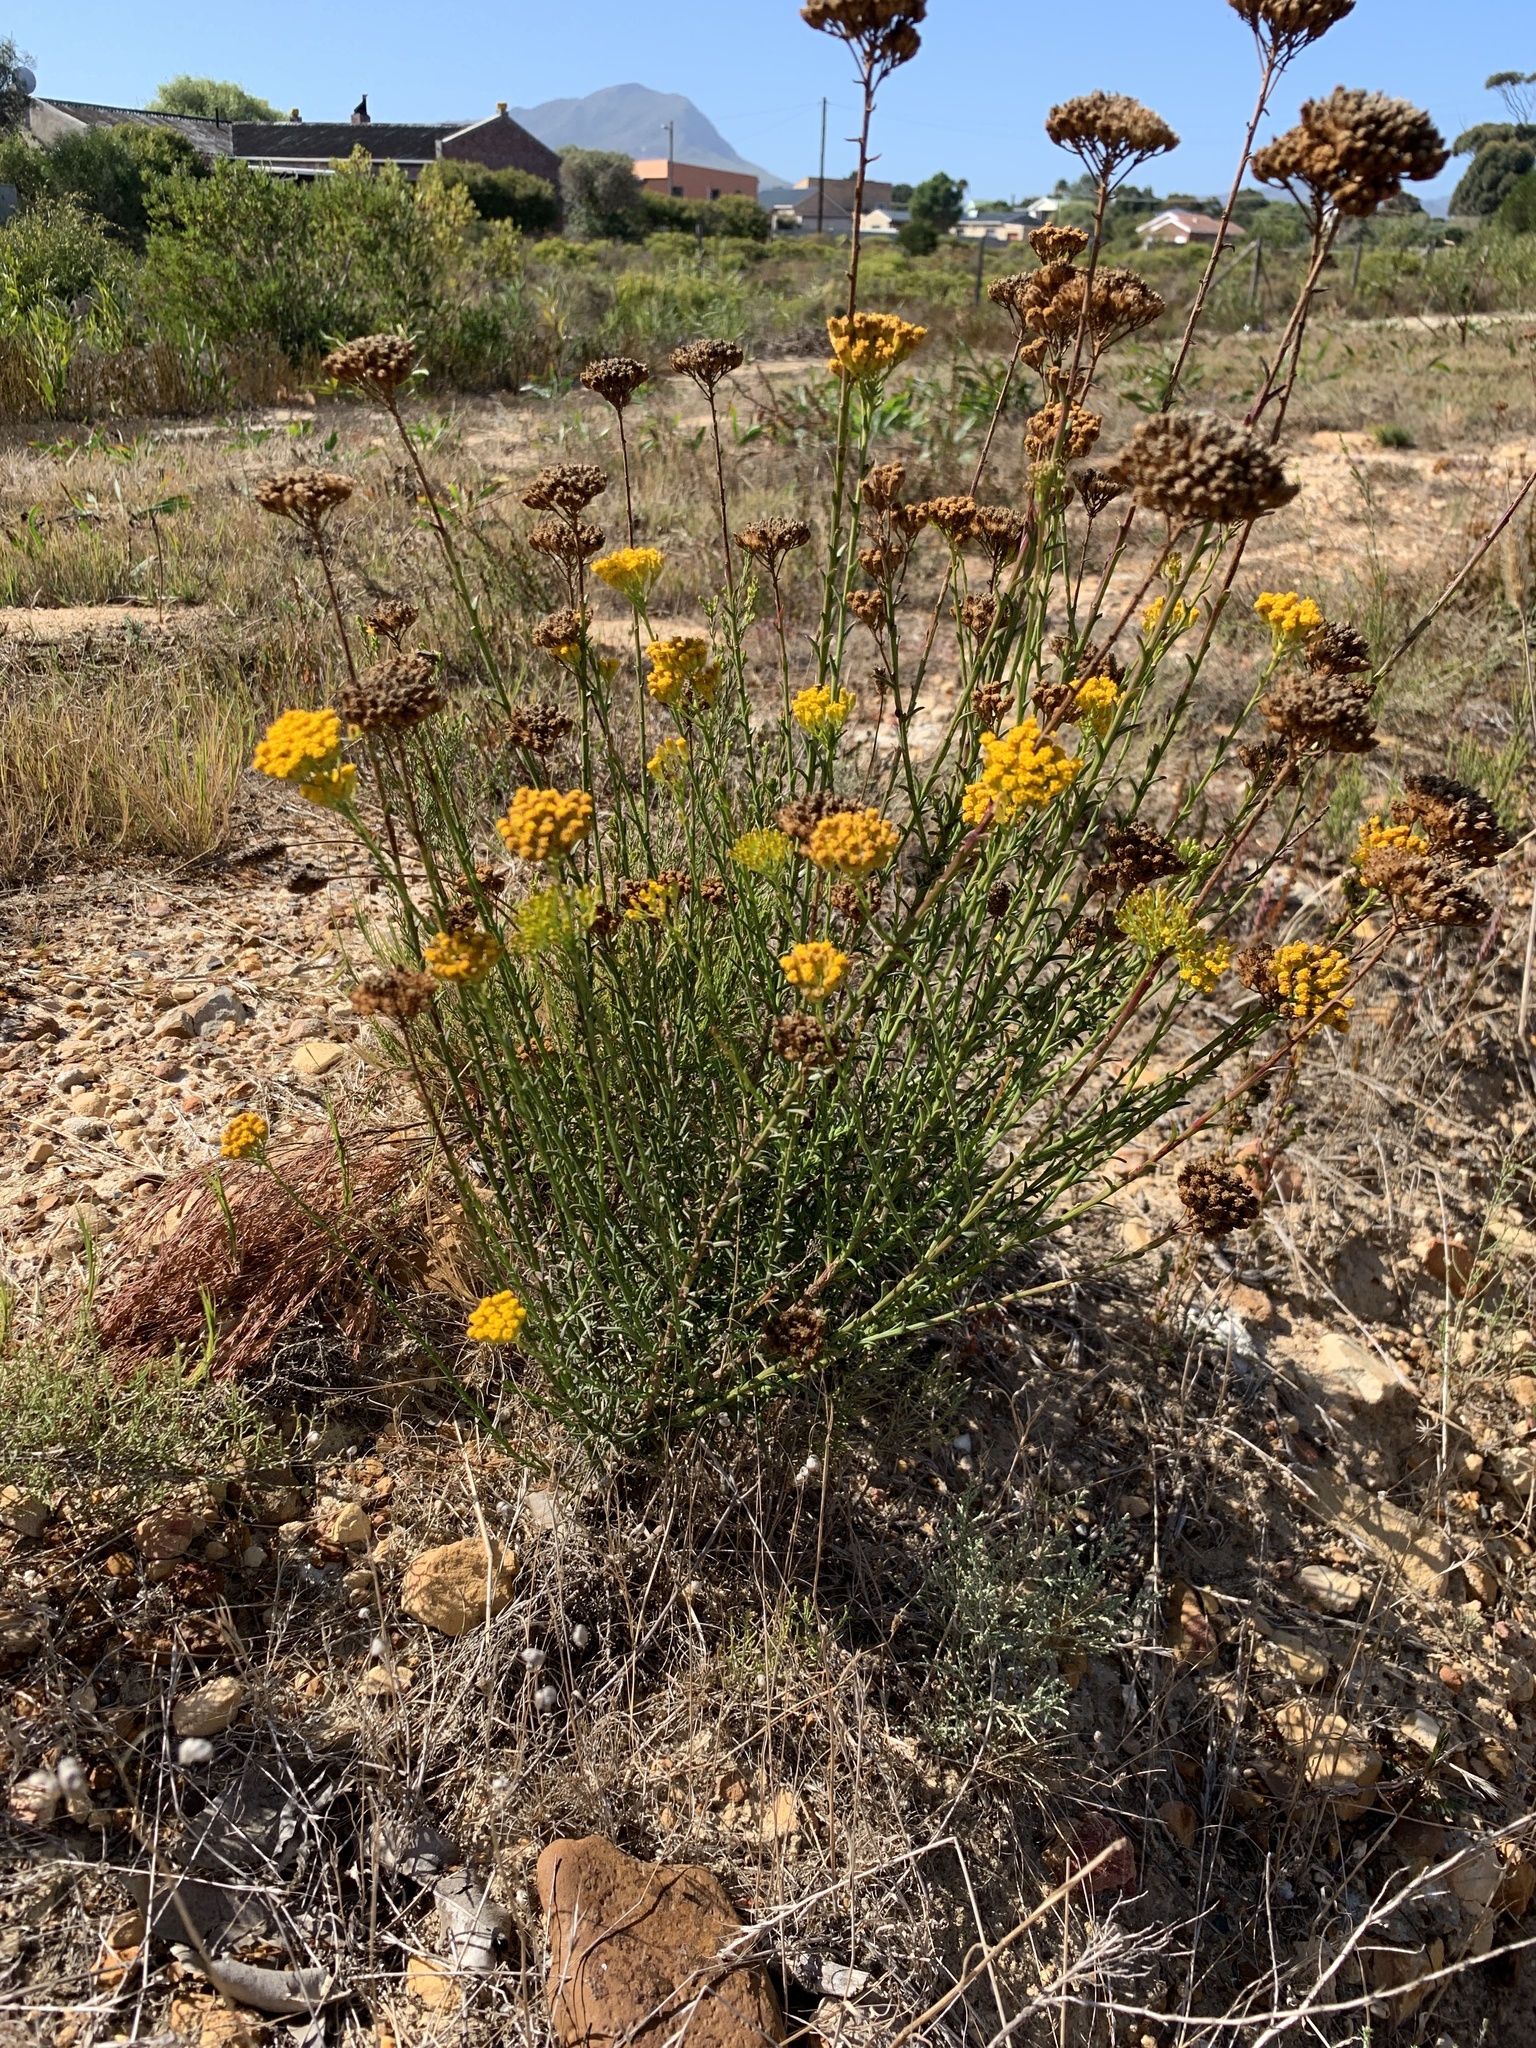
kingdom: Plantae
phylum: Tracheophyta
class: Magnoliopsida
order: Asterales
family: Asteraceae
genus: Athanasia
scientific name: Athanasia trifurcata
